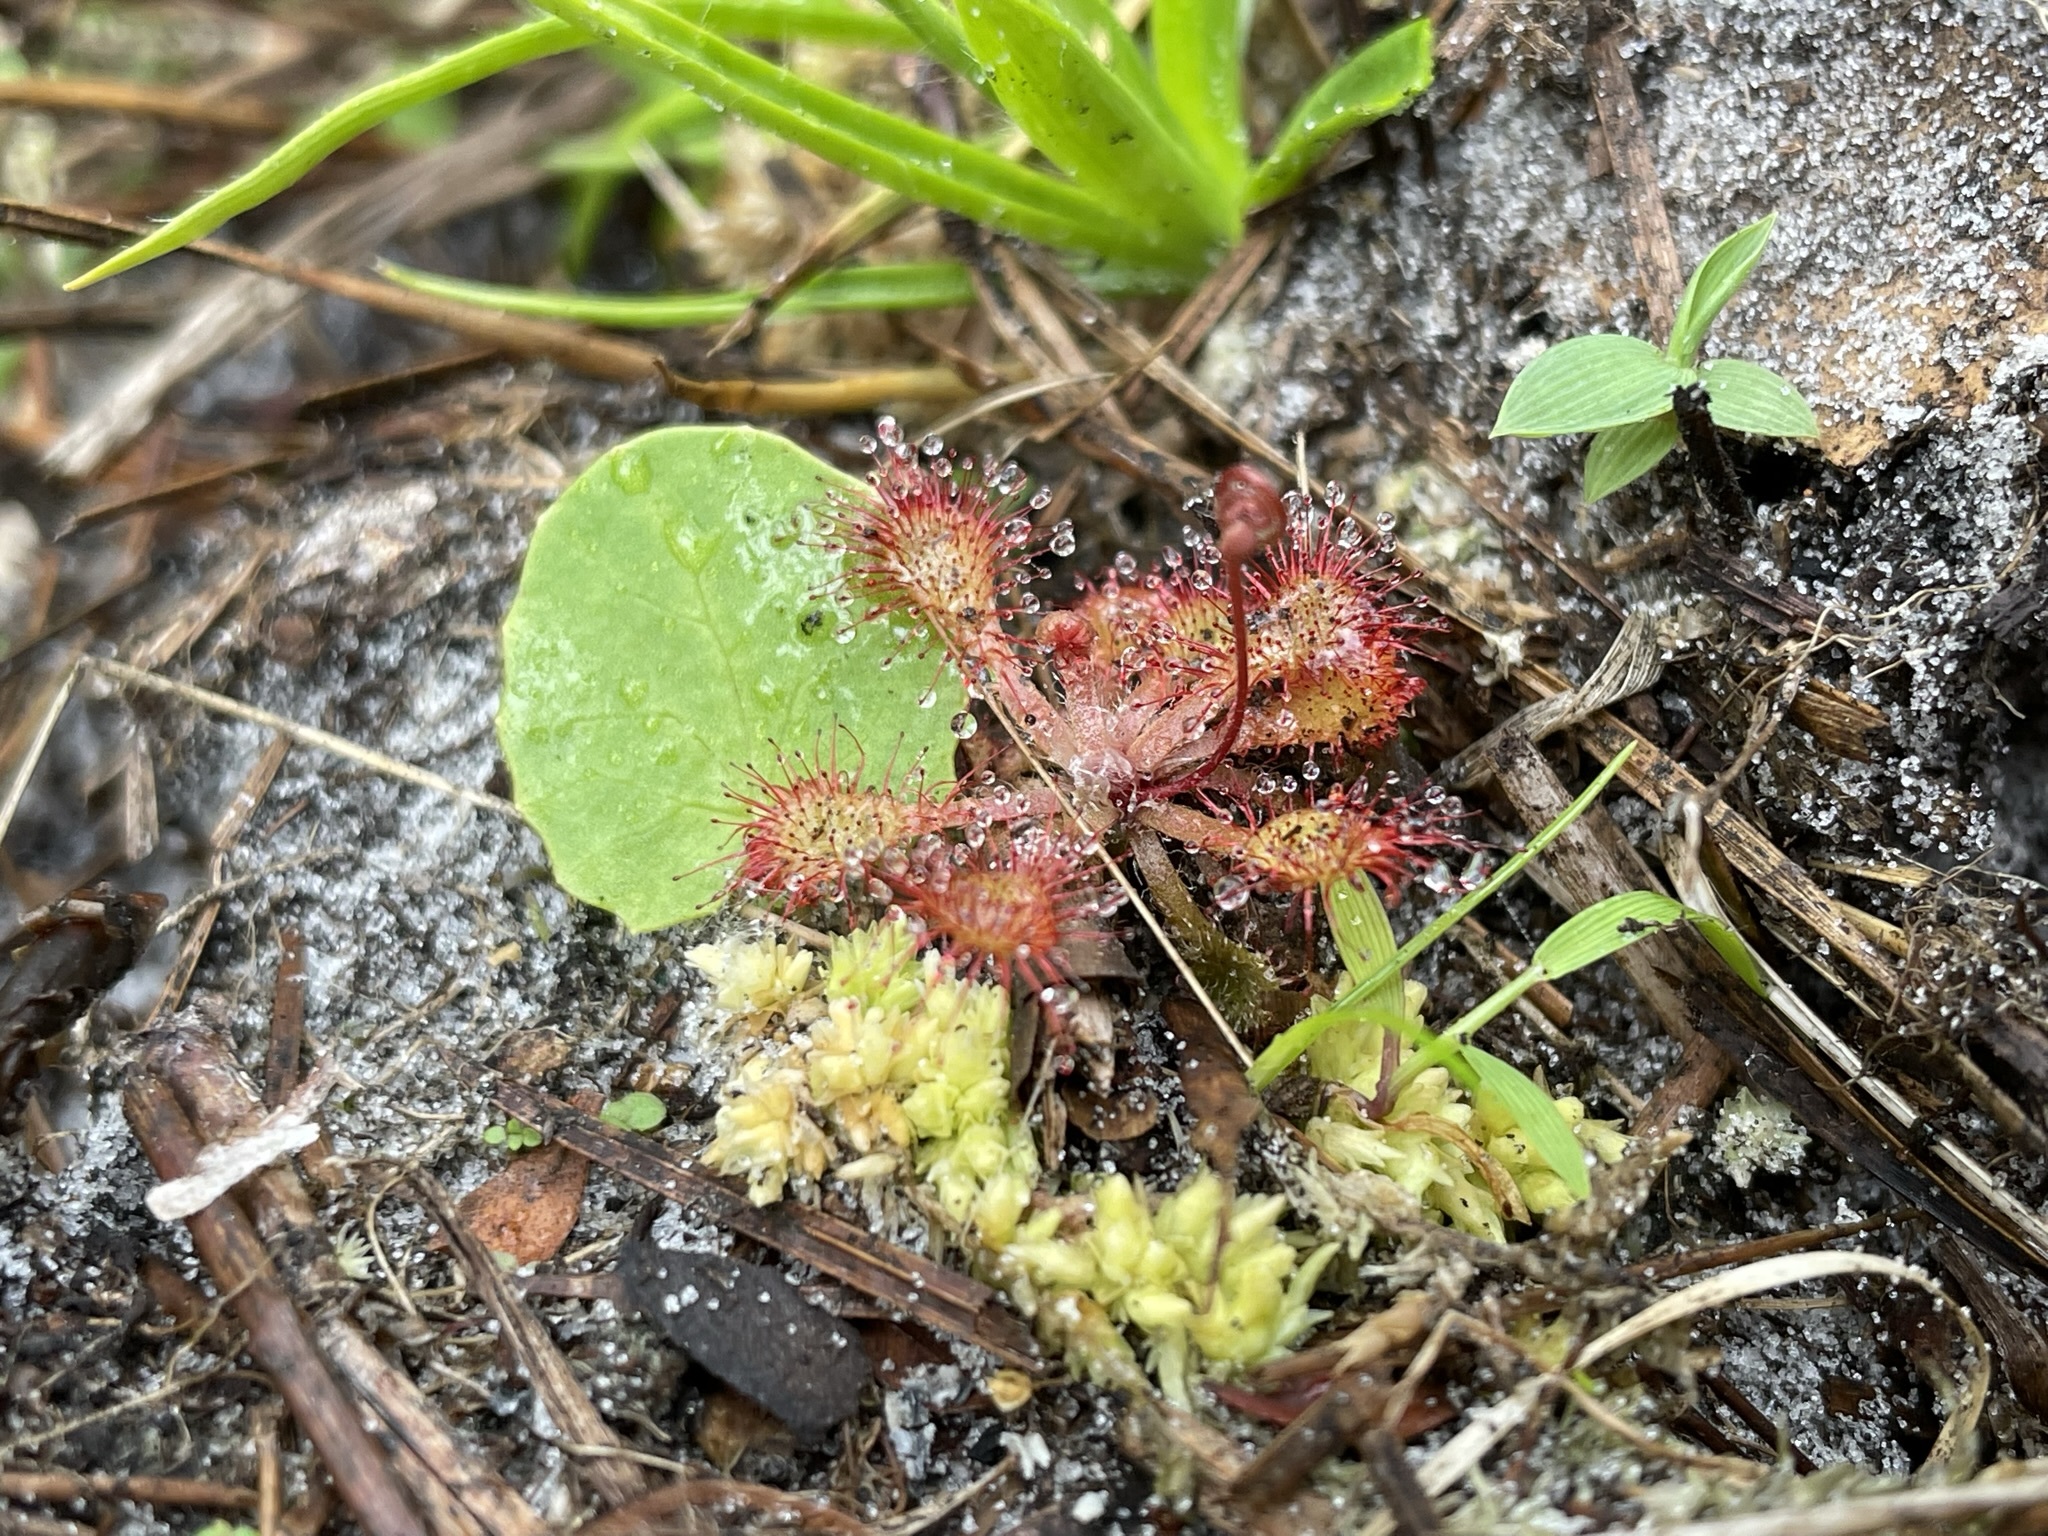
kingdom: Plantae
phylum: Tracheophyta
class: Magnoliopsida
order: Caryophyllales
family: Droseraceae
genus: Drosera
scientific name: Drosera capillaris
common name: Pink sundew
